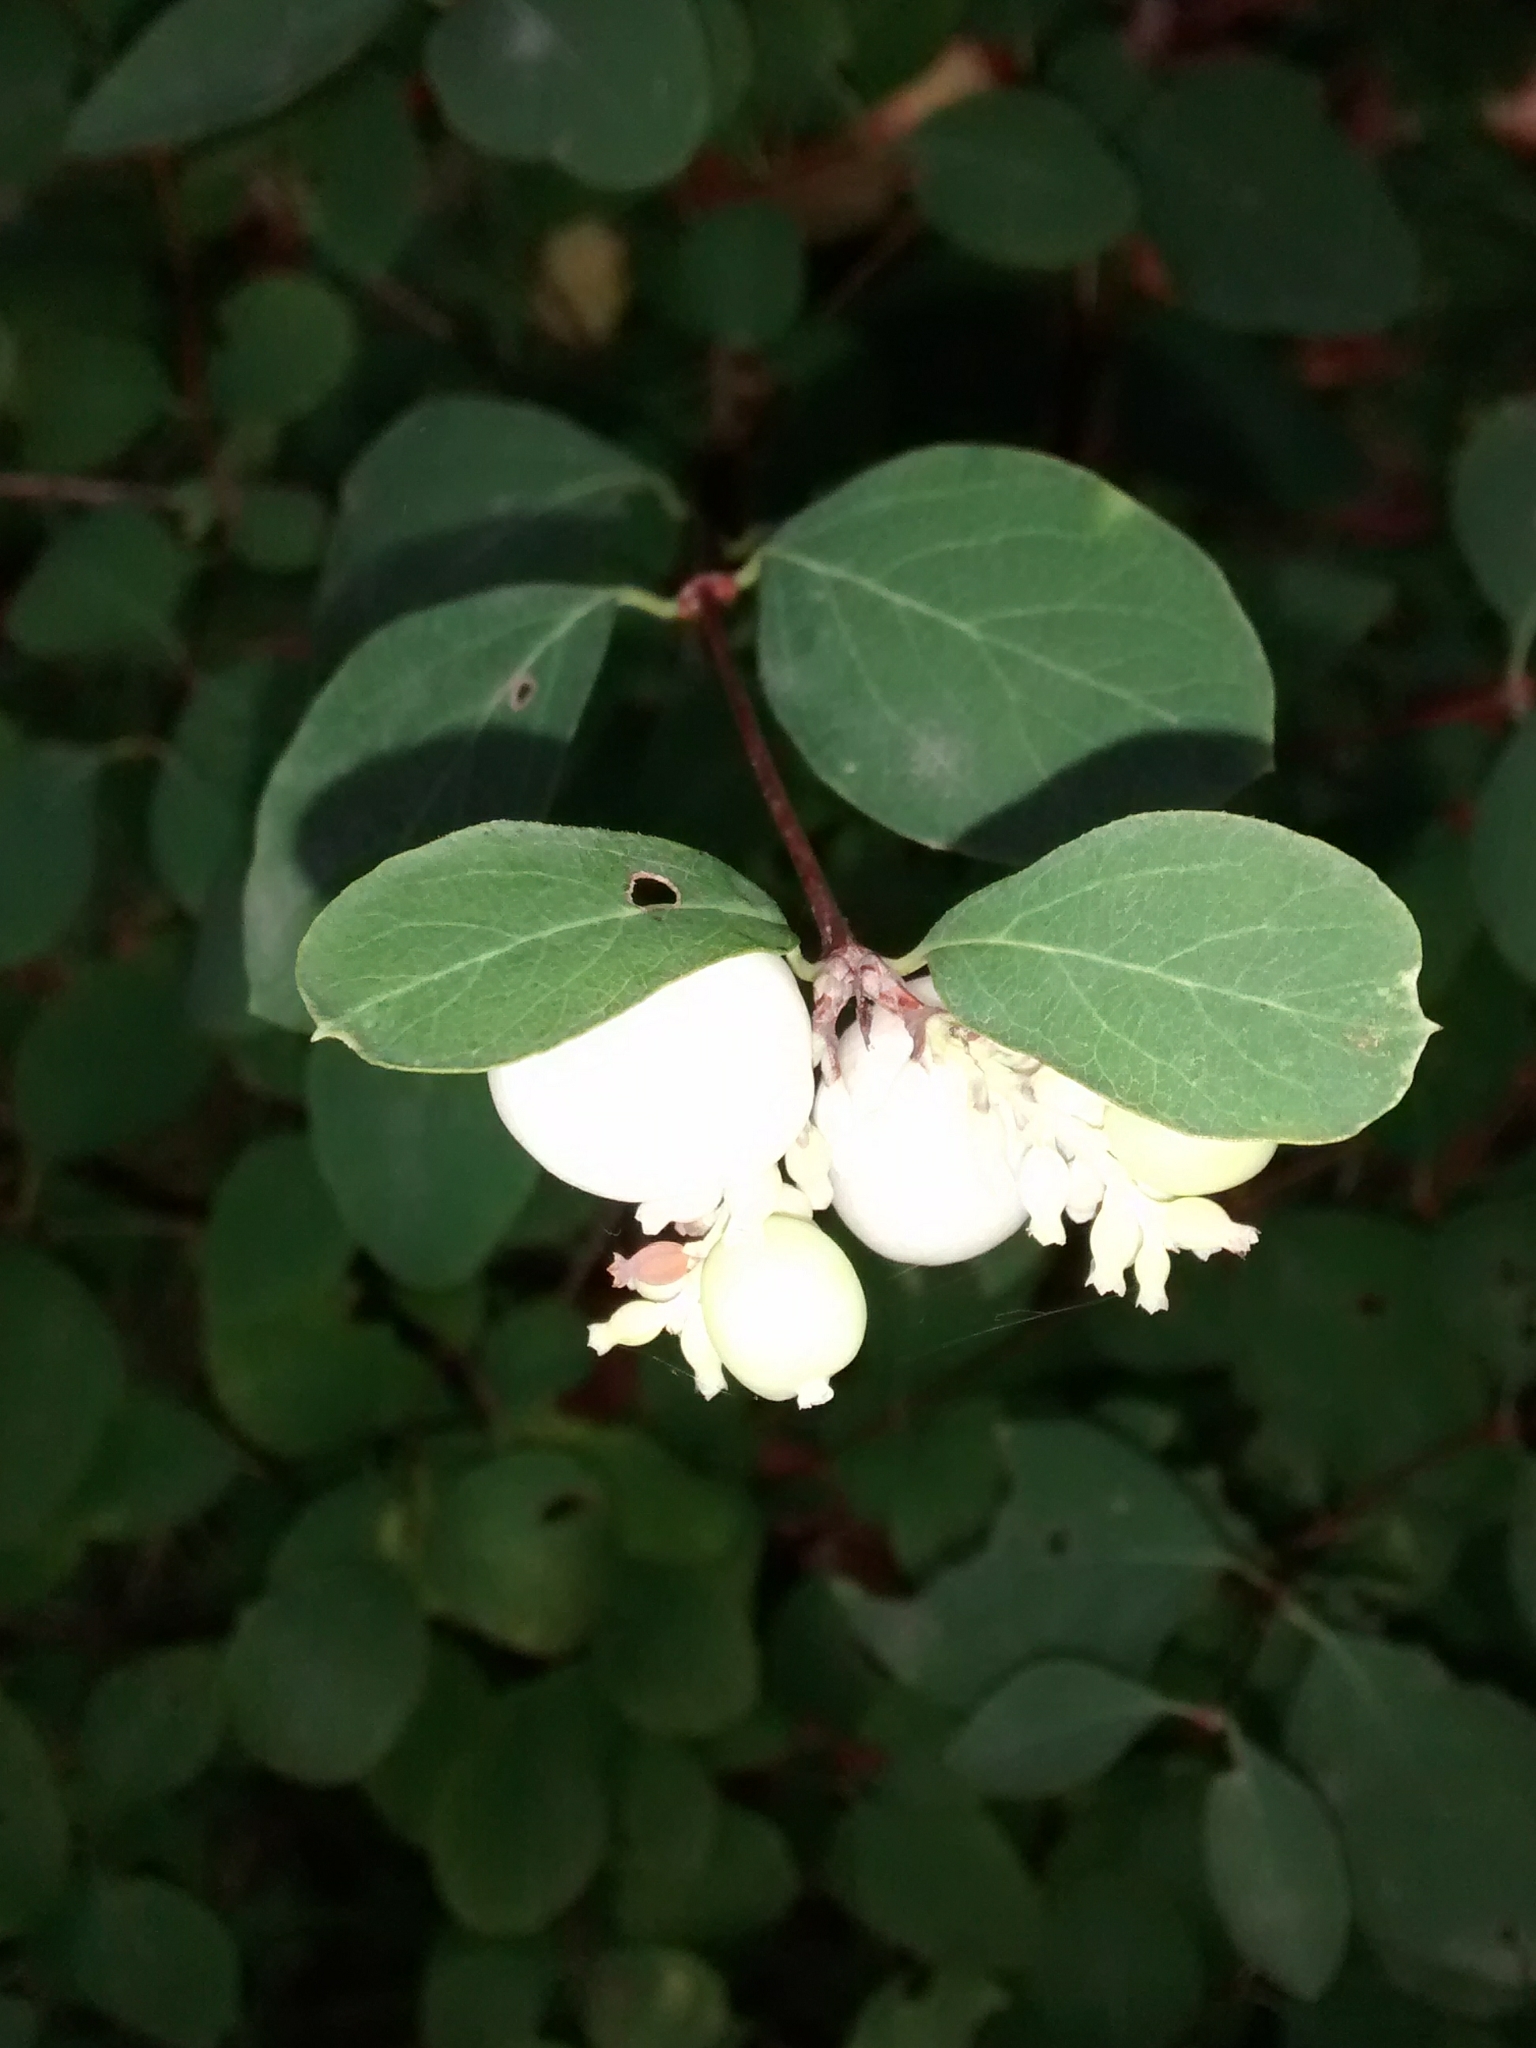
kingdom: Plantae
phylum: Tracheophyta
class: Magnoliopsida
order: Dipsacales
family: Caprifoliaceae
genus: Symphoricarpos
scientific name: Symphoricarpos albus
